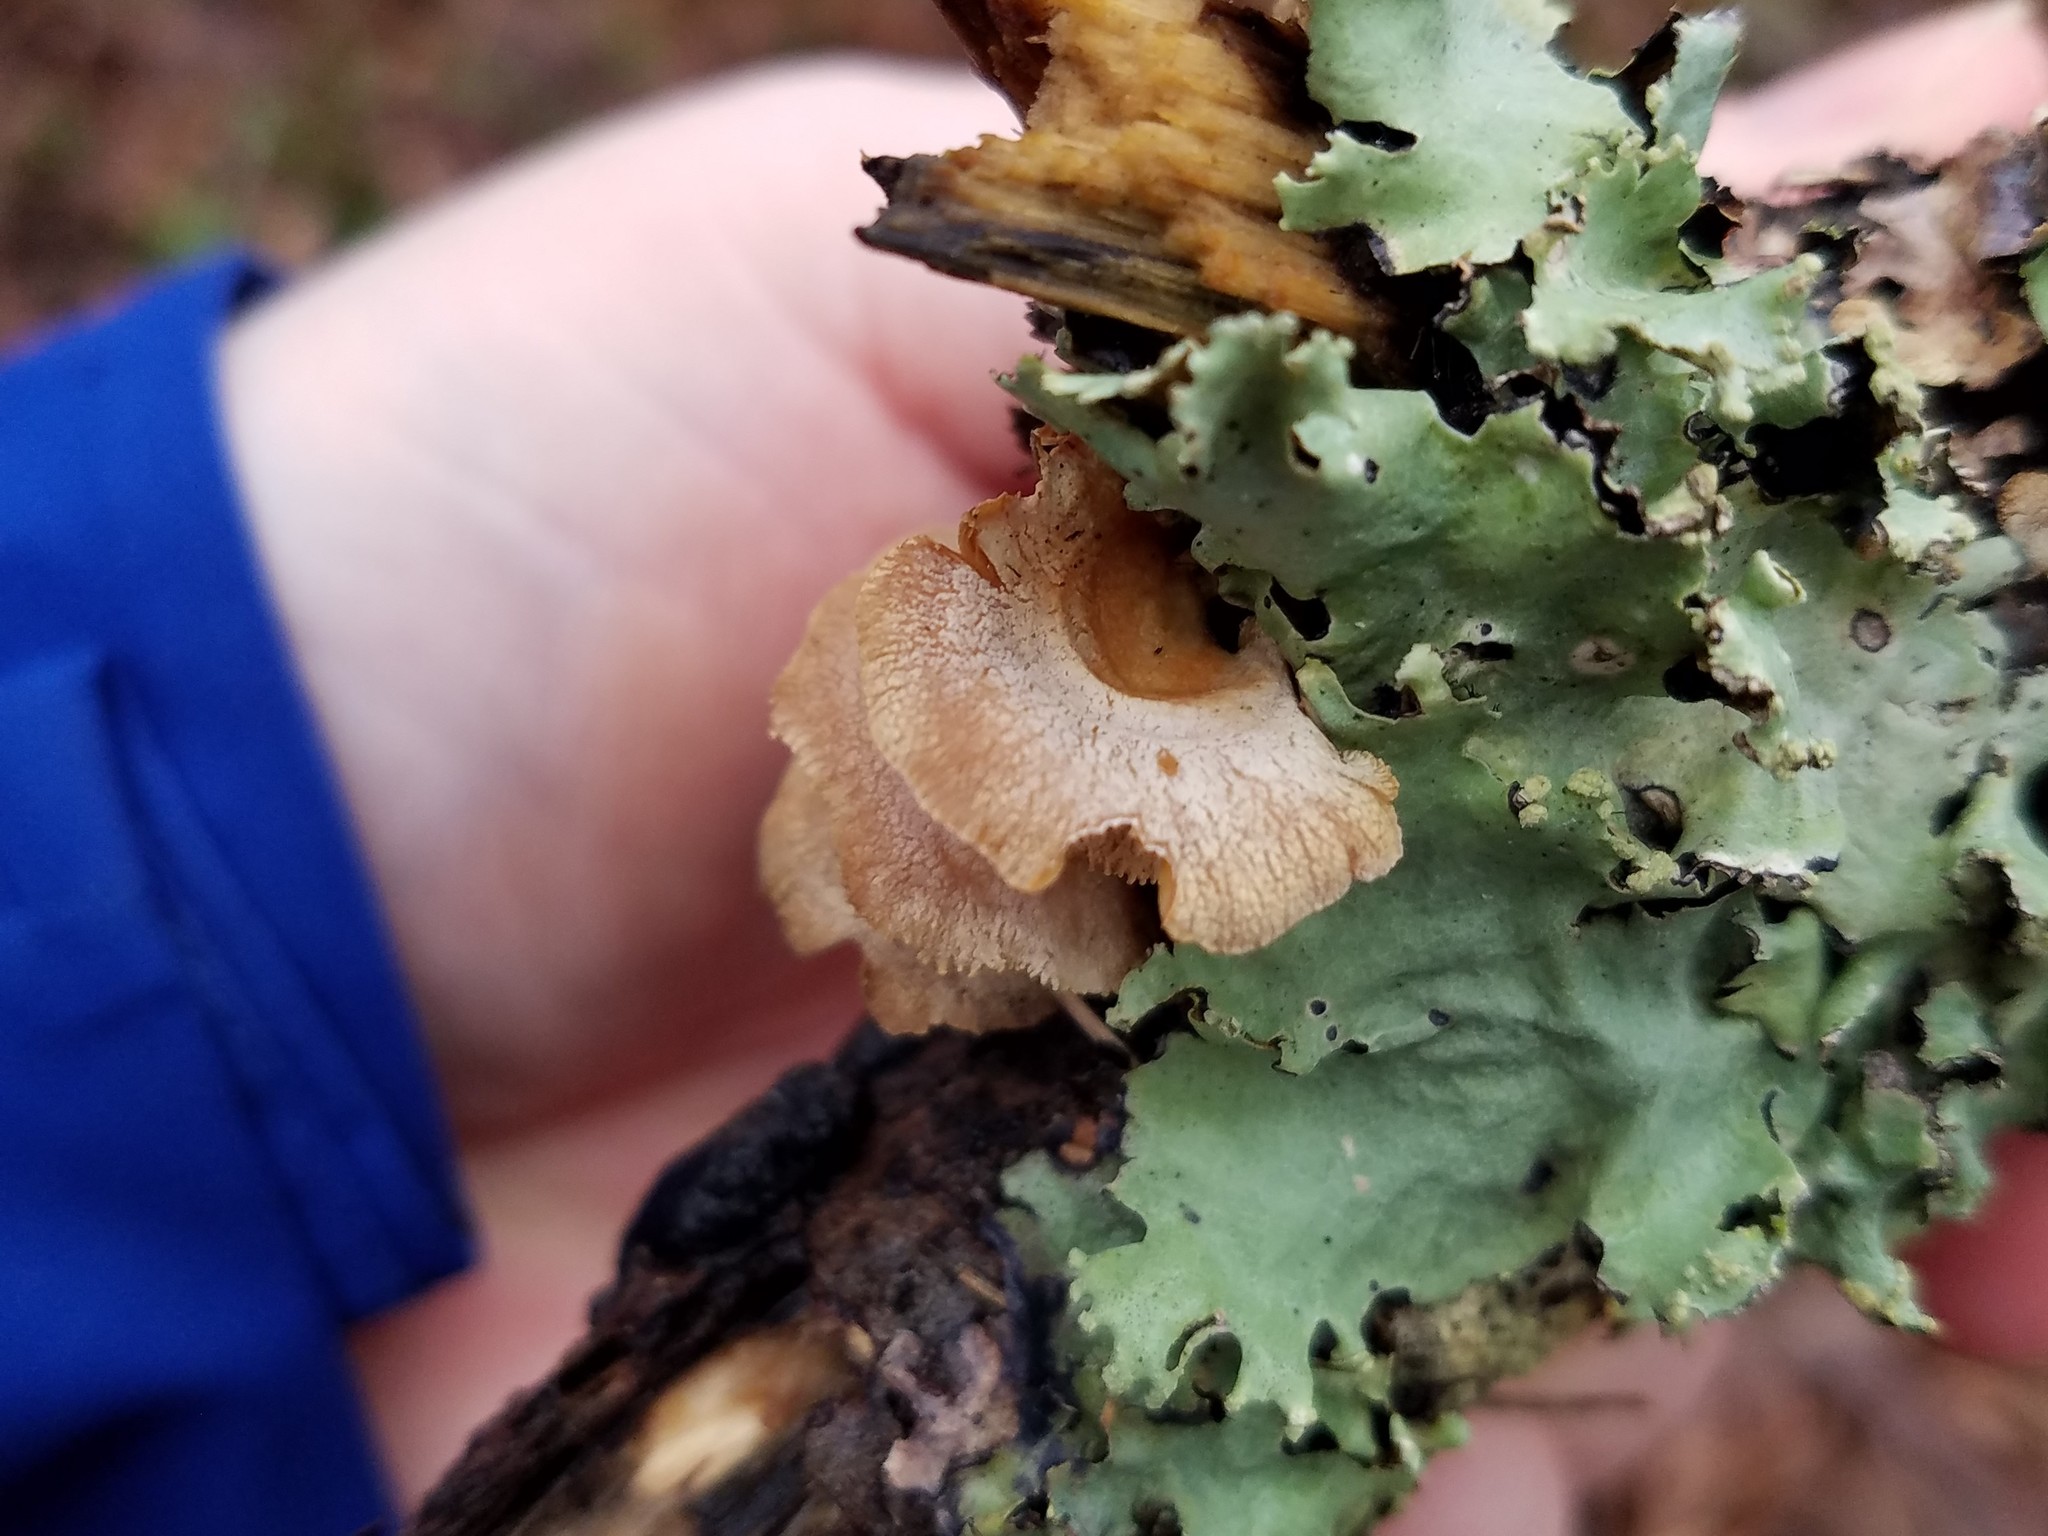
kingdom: Fungi
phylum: Basidiomycota
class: Agaricomycetes
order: Agaricales
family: Mycenaceae
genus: Panellus
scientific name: Panellus stipticus
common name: Bitter oysterling
